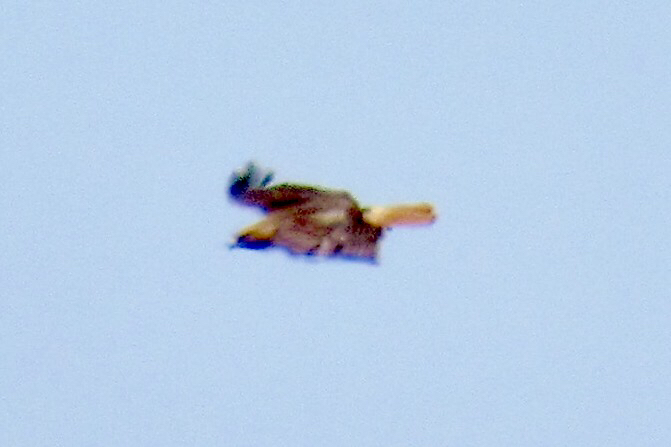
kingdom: Animalia
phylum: Chordata
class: Aves
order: Accipitriformes
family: Accipitridae
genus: Buteo
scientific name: Buteo jamaicensis
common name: Red-tailed hawk
